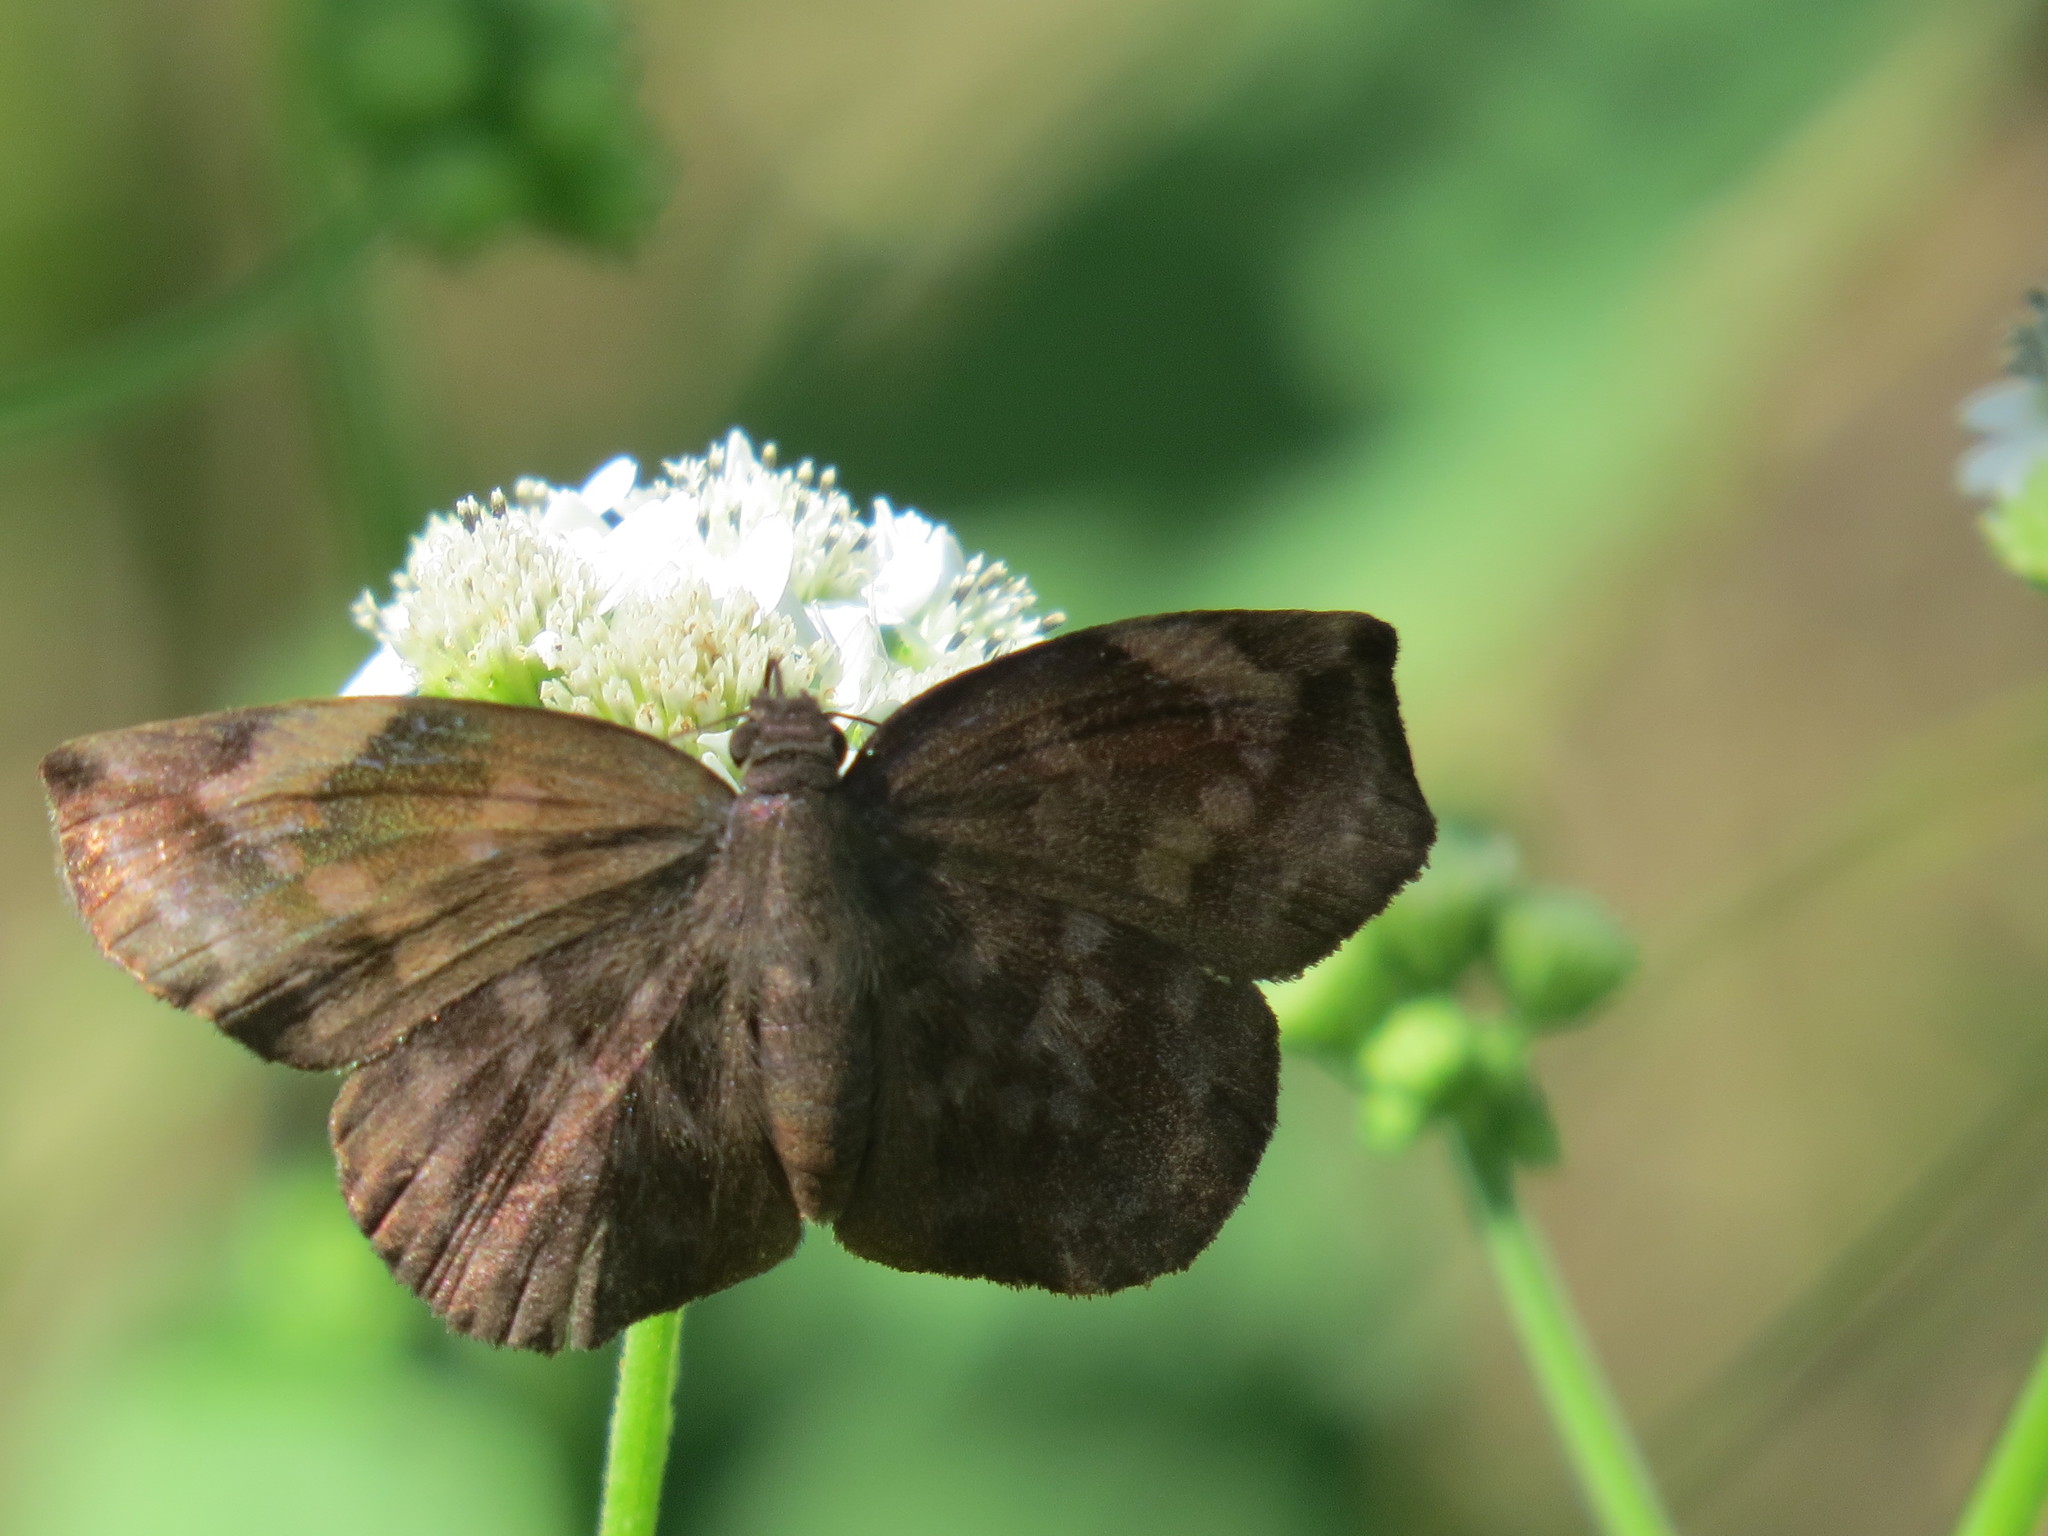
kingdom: Animalia
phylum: Arthropoda
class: Insecta
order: Lepidoptera
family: Hesperiidae
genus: Achlyodes
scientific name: Achlyodes thraso
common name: Sickle-winged skipper
